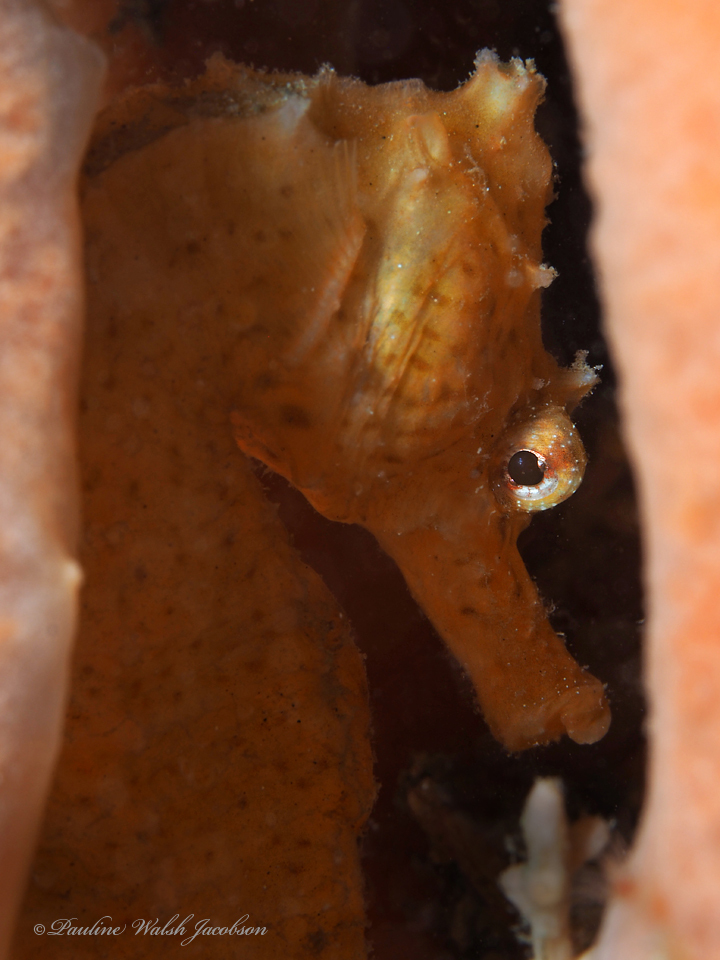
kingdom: Animalia
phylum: Chordata
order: Syngnathiformes
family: Syngnathidae
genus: Hippocampus
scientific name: Hippocampus erectus
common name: Lined seahorse
